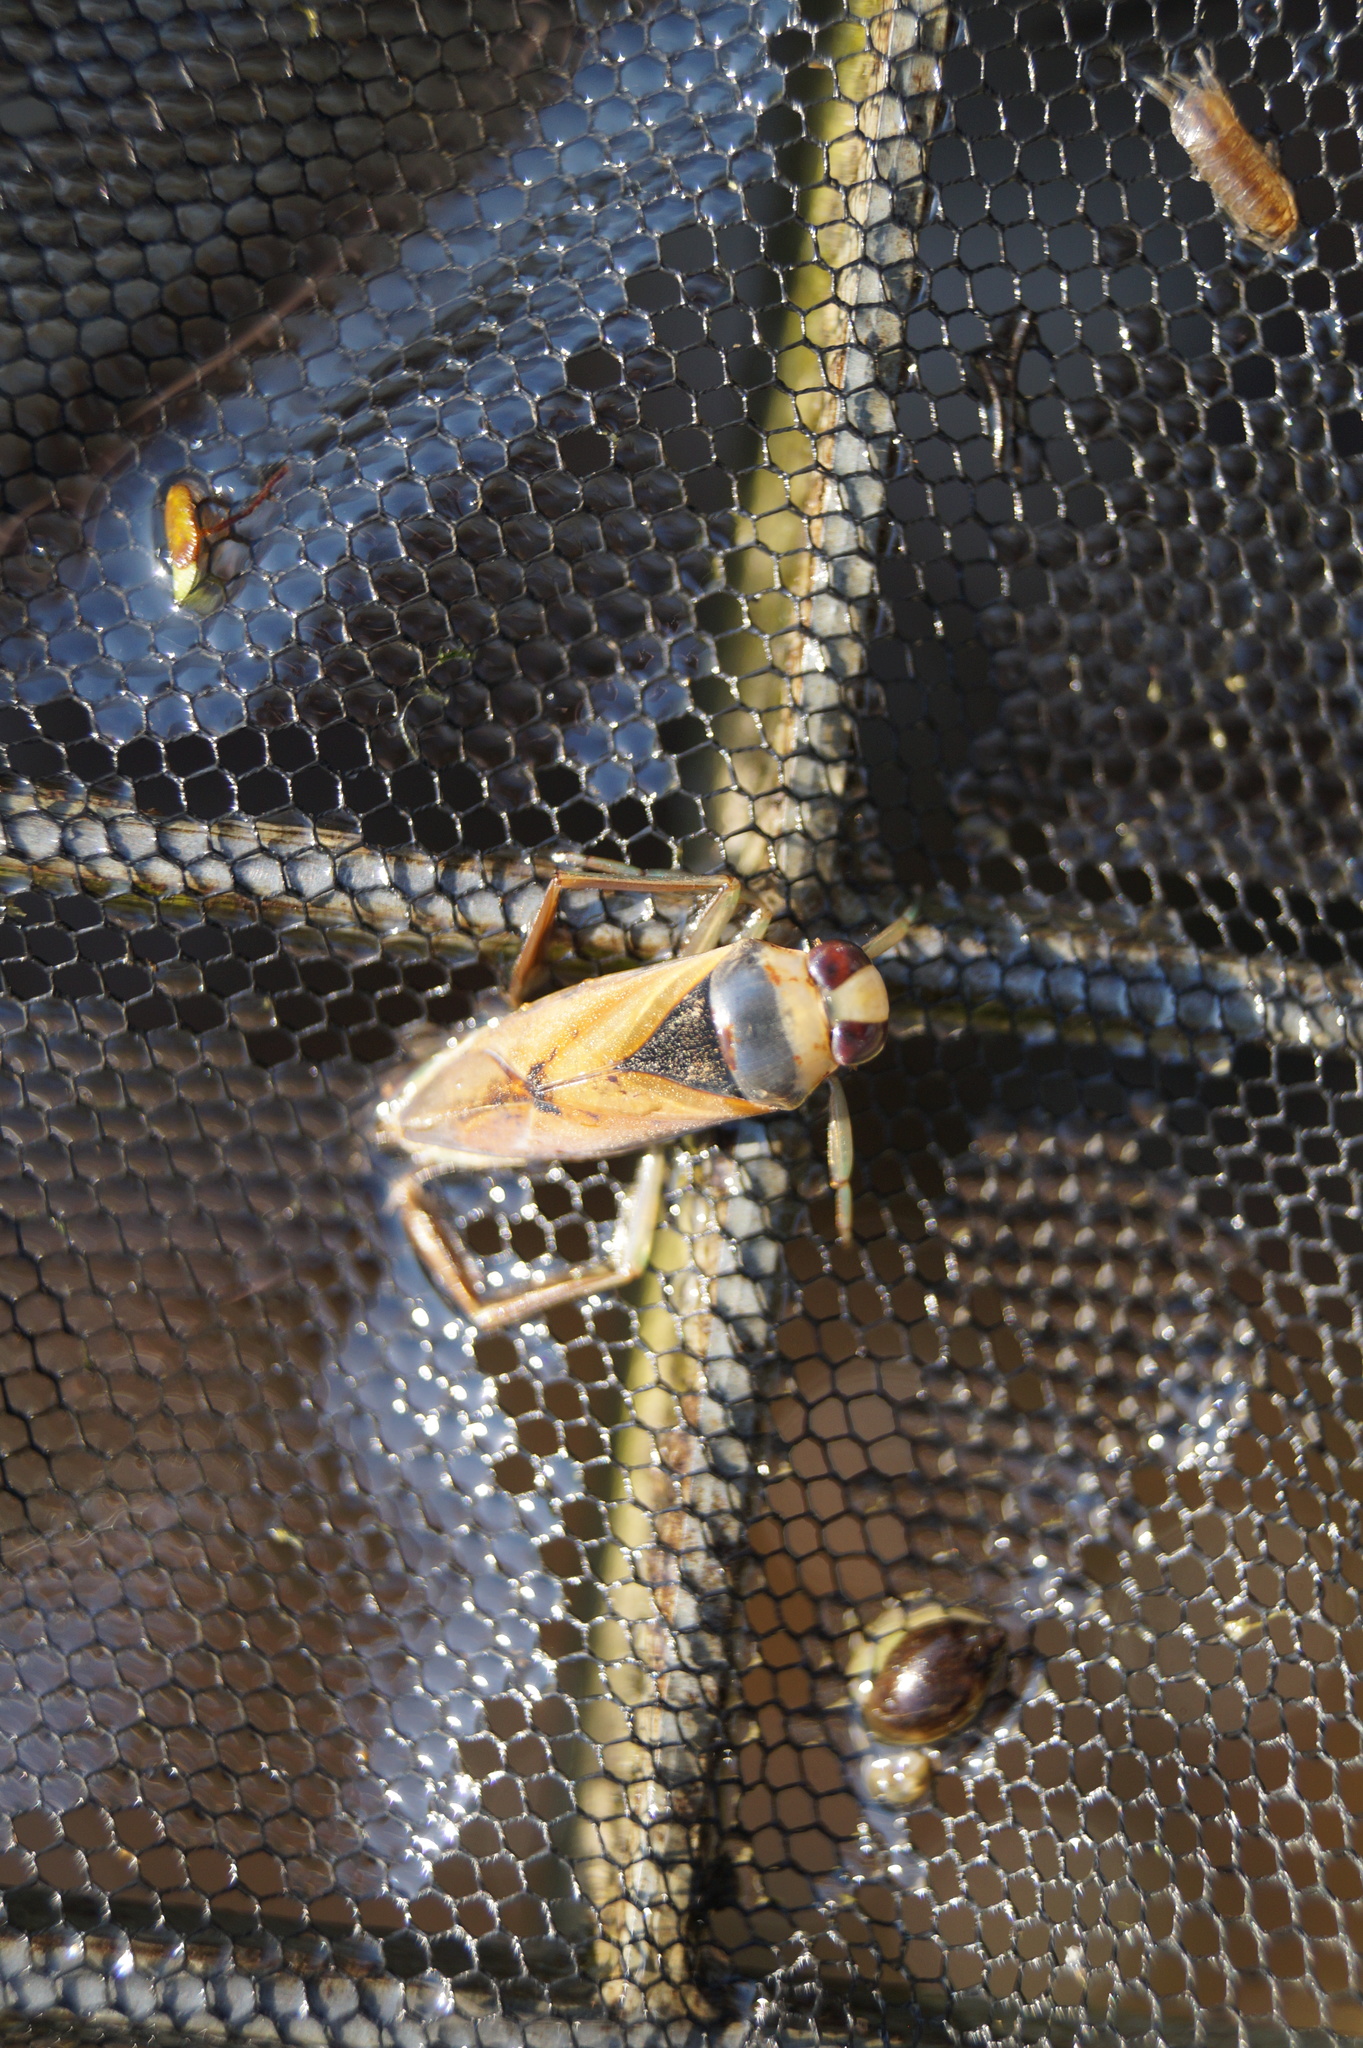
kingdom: Animalia
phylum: Arthropoda
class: Insecta
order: Hemiptera
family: Notonectidae
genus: Notonecta
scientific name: Notonecta glauca
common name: Common water-boatman
